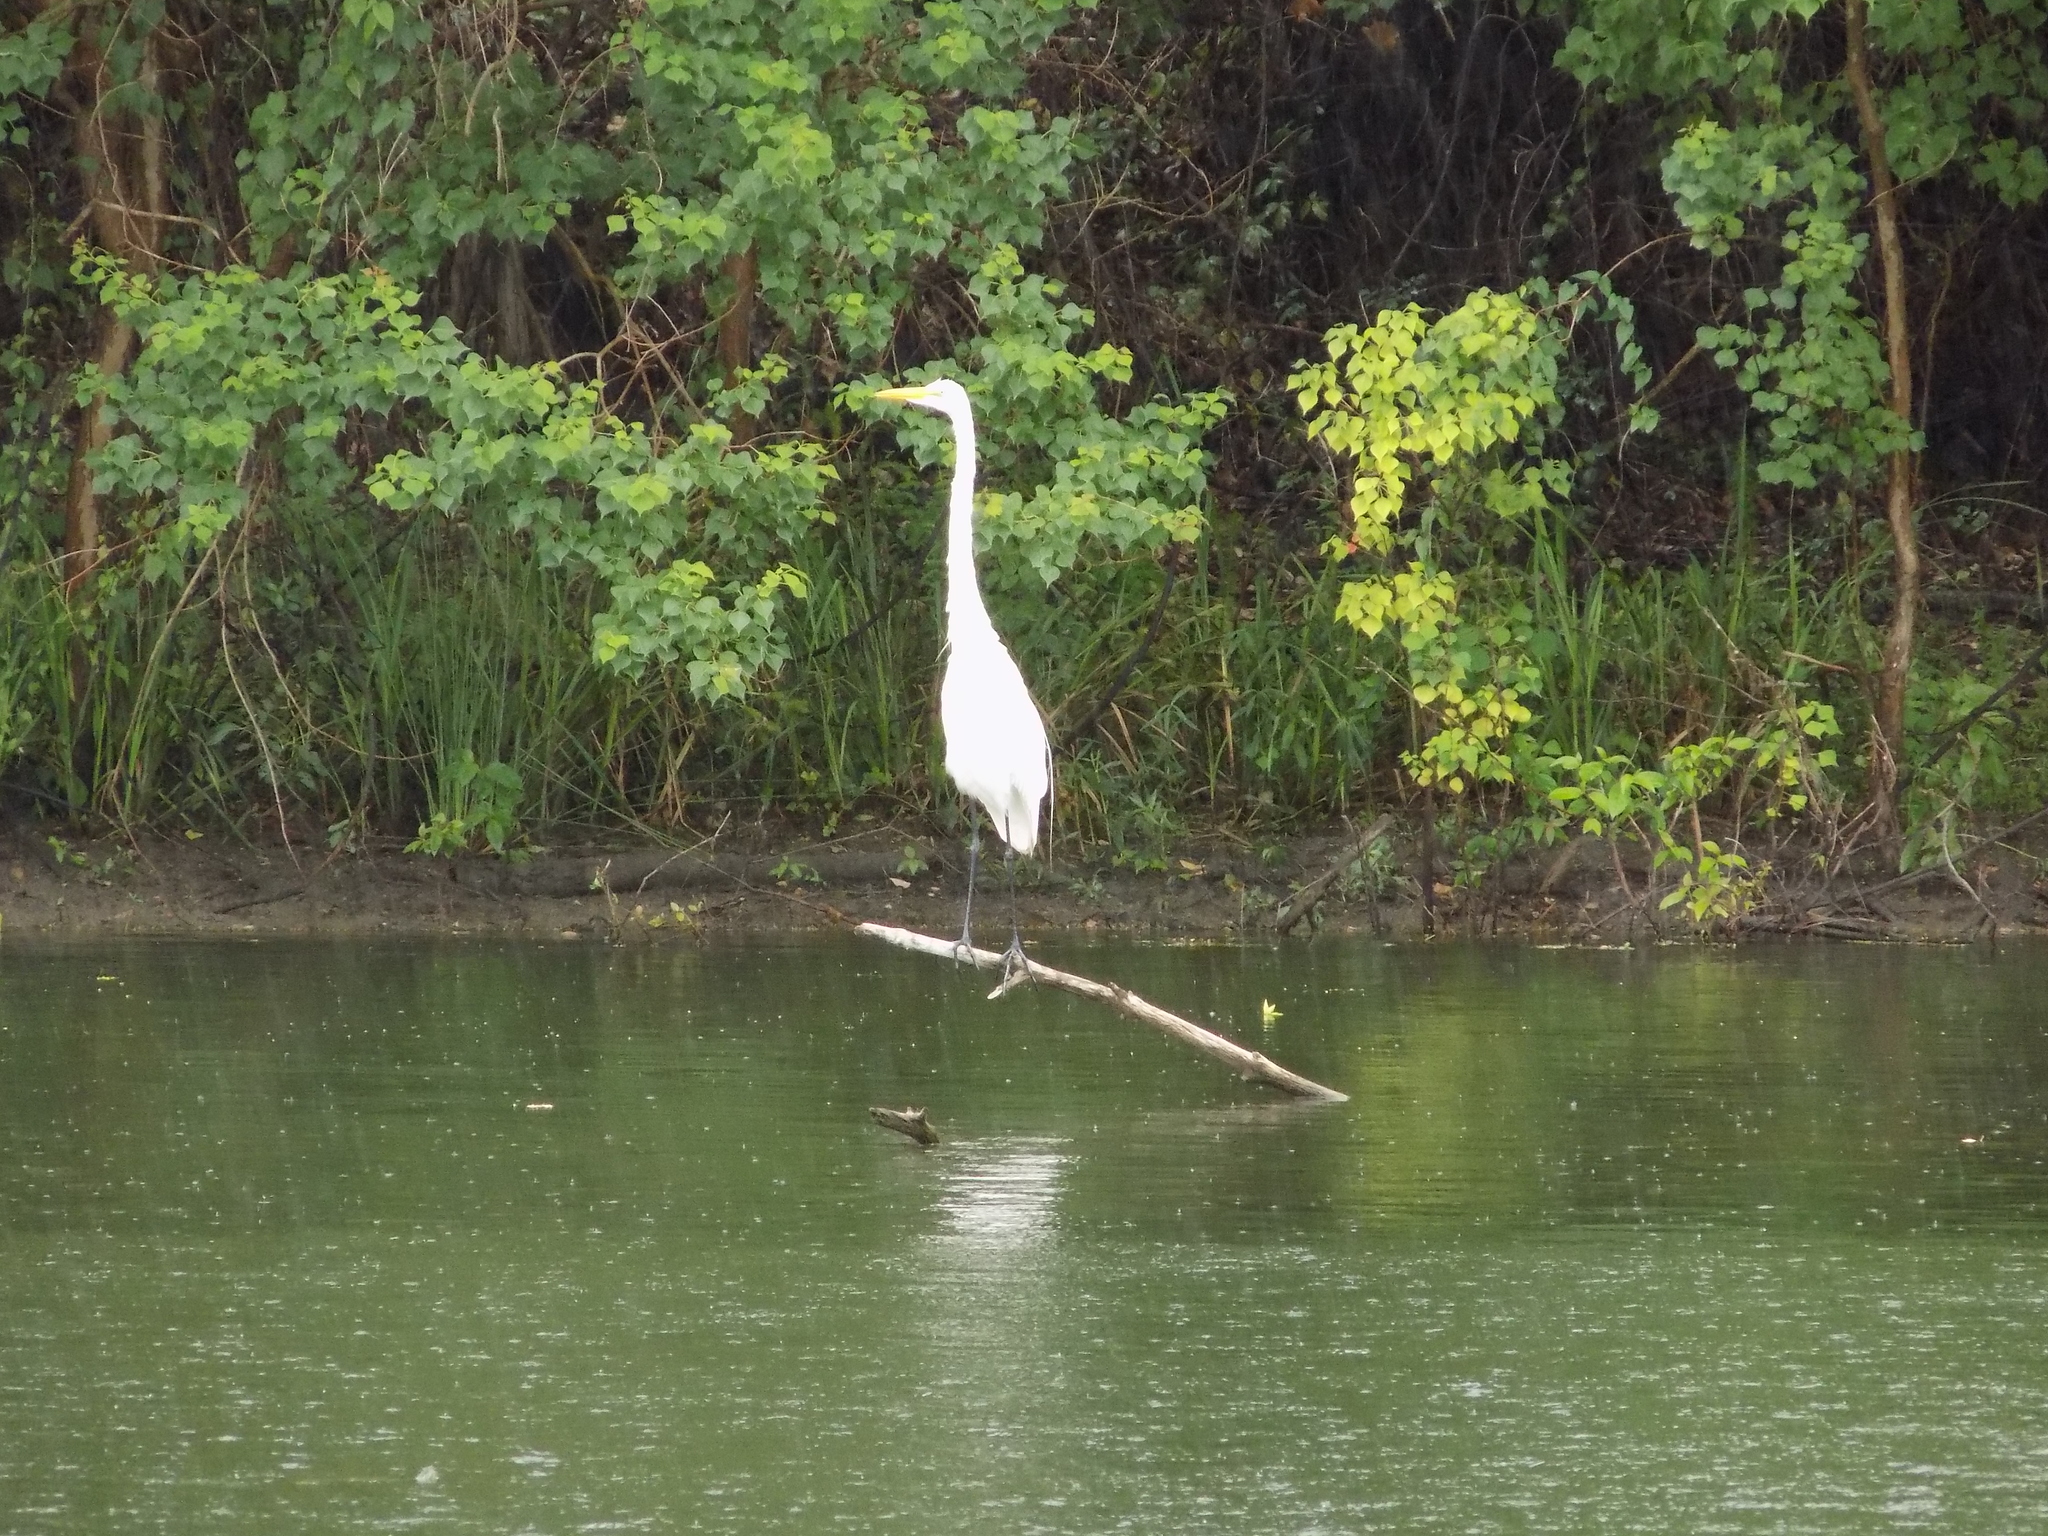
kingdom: Animalia
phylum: Chordata
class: Aves
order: Pelecaniformes
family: Ardeidae
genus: Ardea
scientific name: Ardea alba
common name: Great egret
